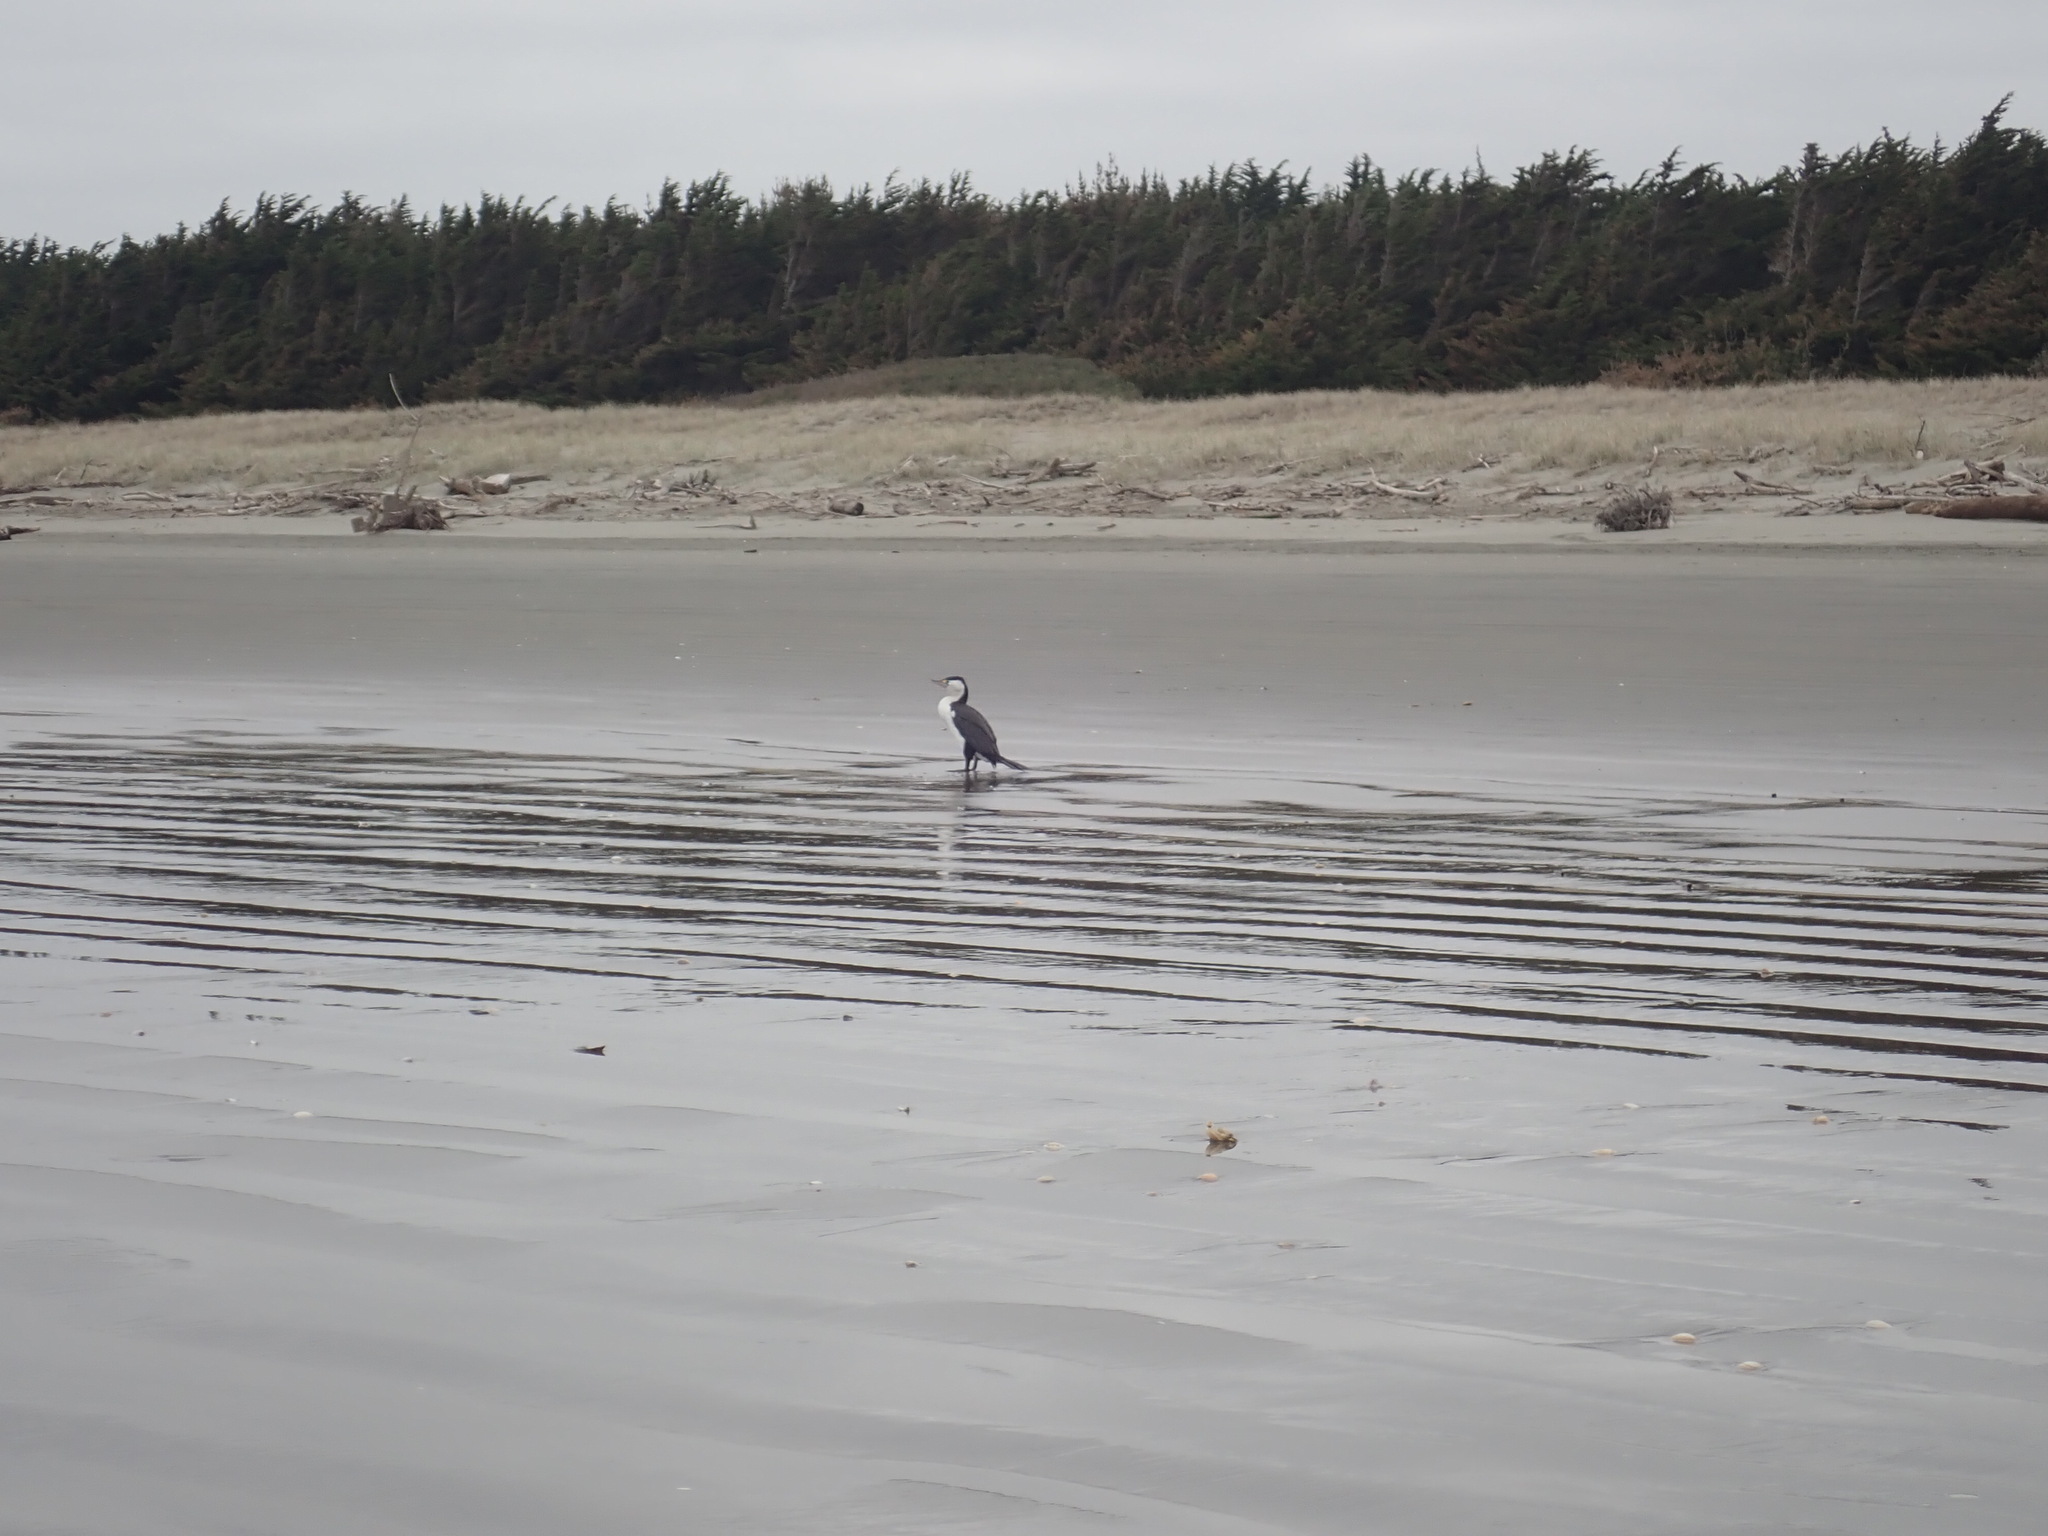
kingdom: Animalia
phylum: Chordata
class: Aves
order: Suliformes
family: Phalacrocoracidae
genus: Phalacrocorax
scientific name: Phalacrocorax varius
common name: Pied cormorant
